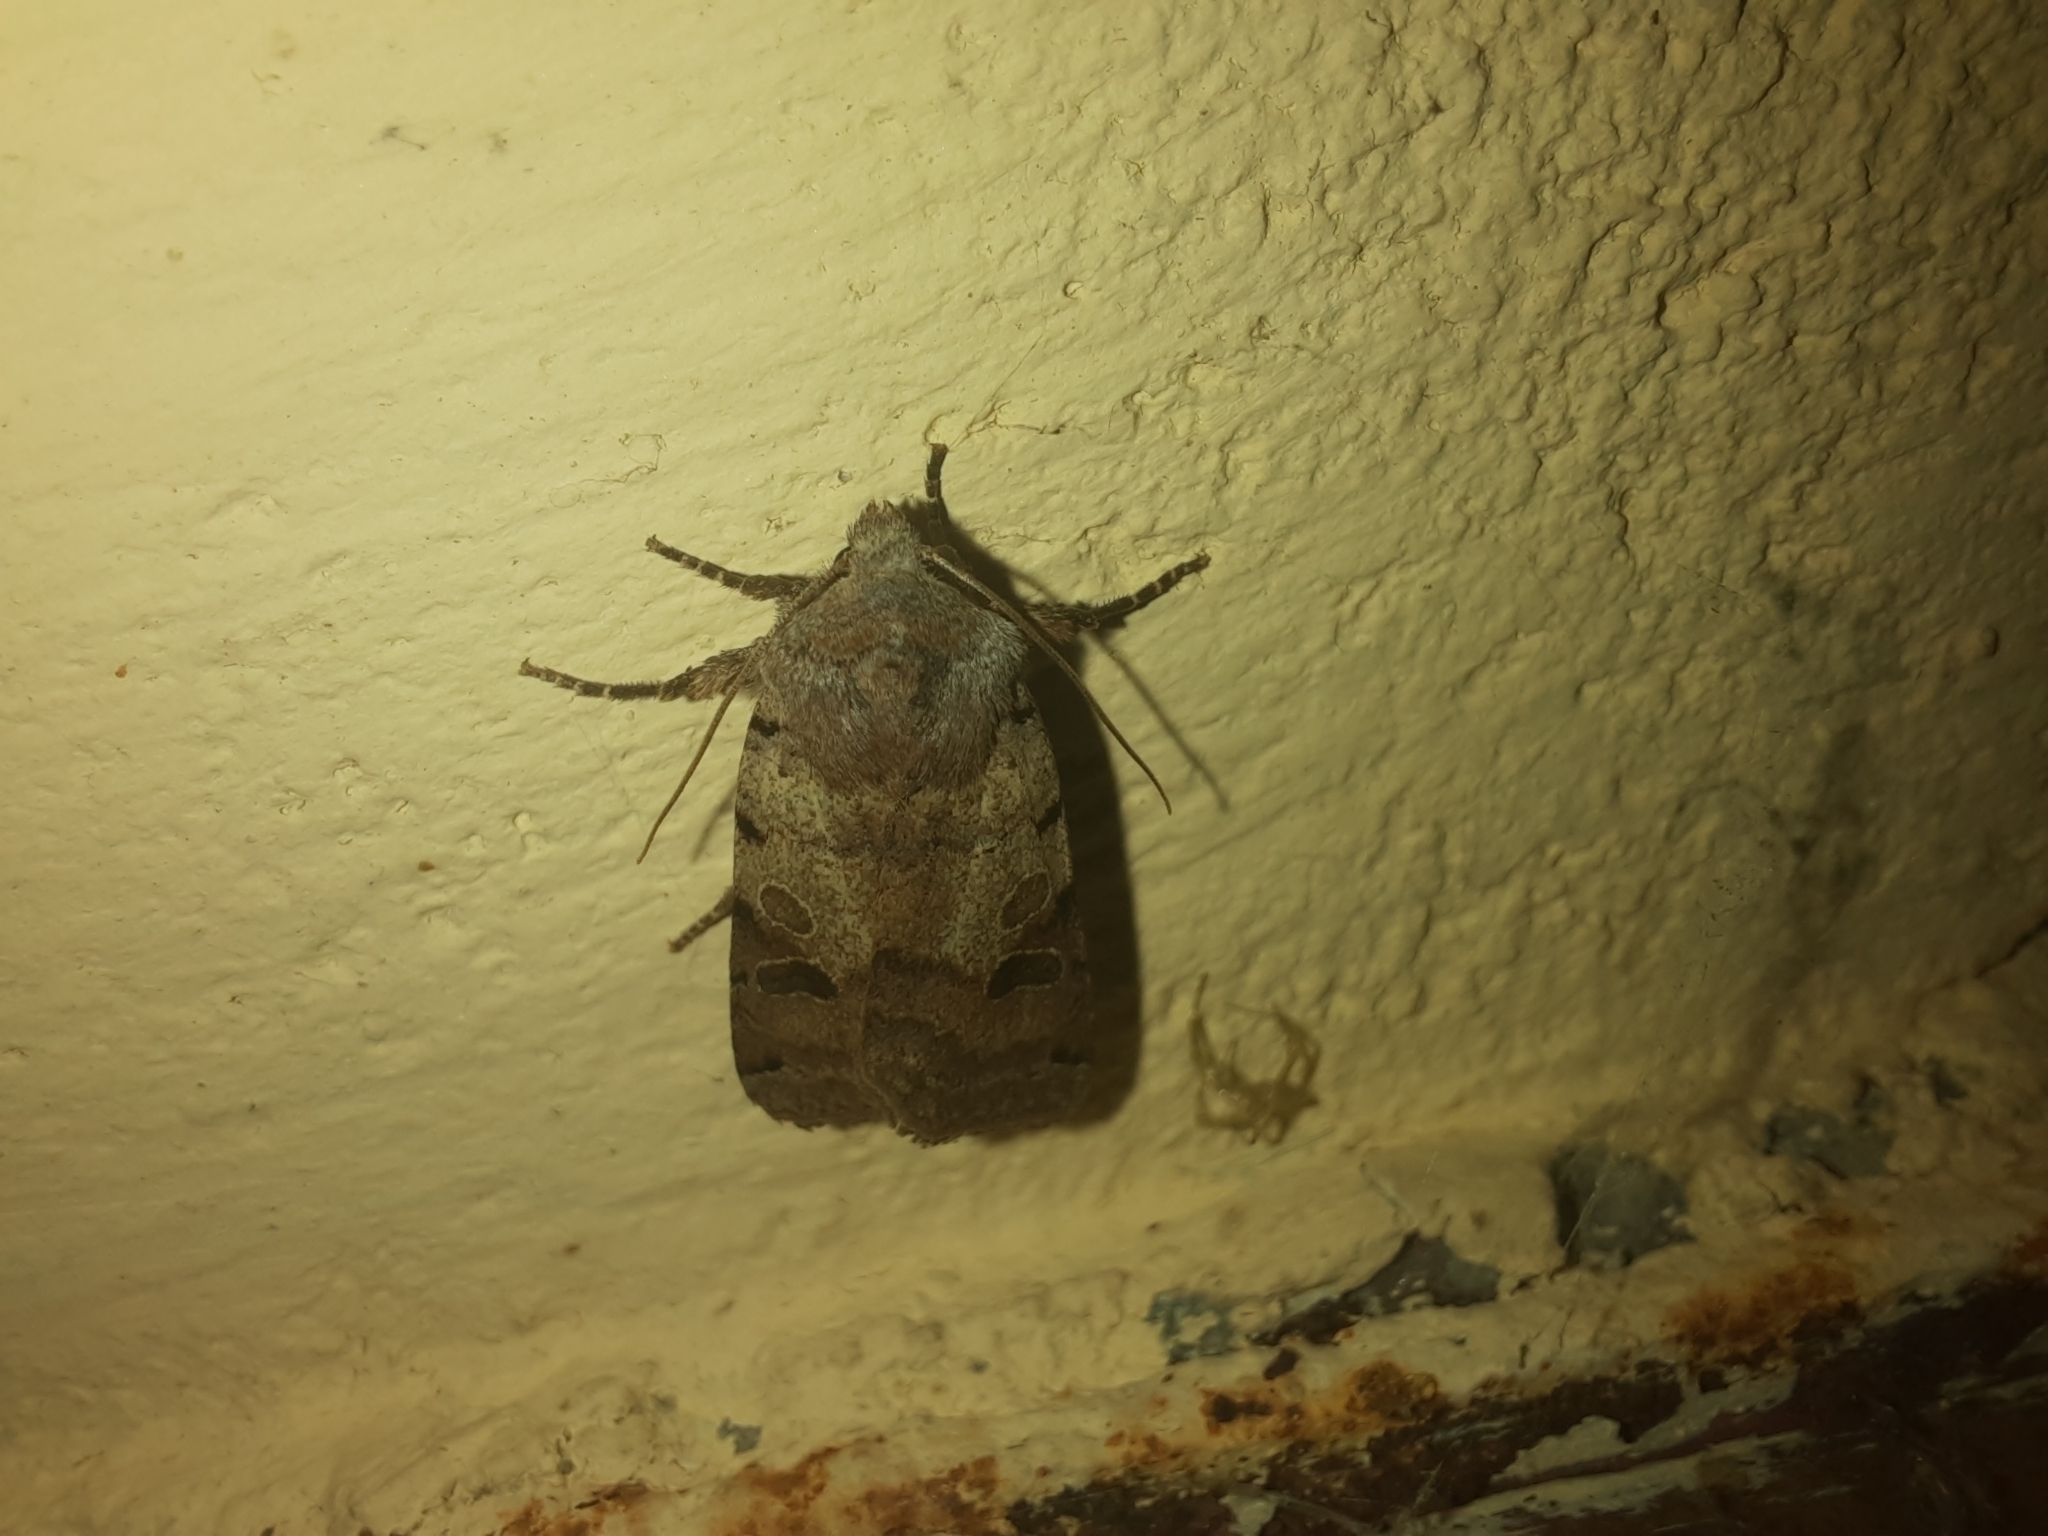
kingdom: Animalia
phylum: Arthropoda
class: Insecta
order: Lepidoptera
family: Noctuidae
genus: Agrochola
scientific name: Agrochola litura
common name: Brown-spot pinion
